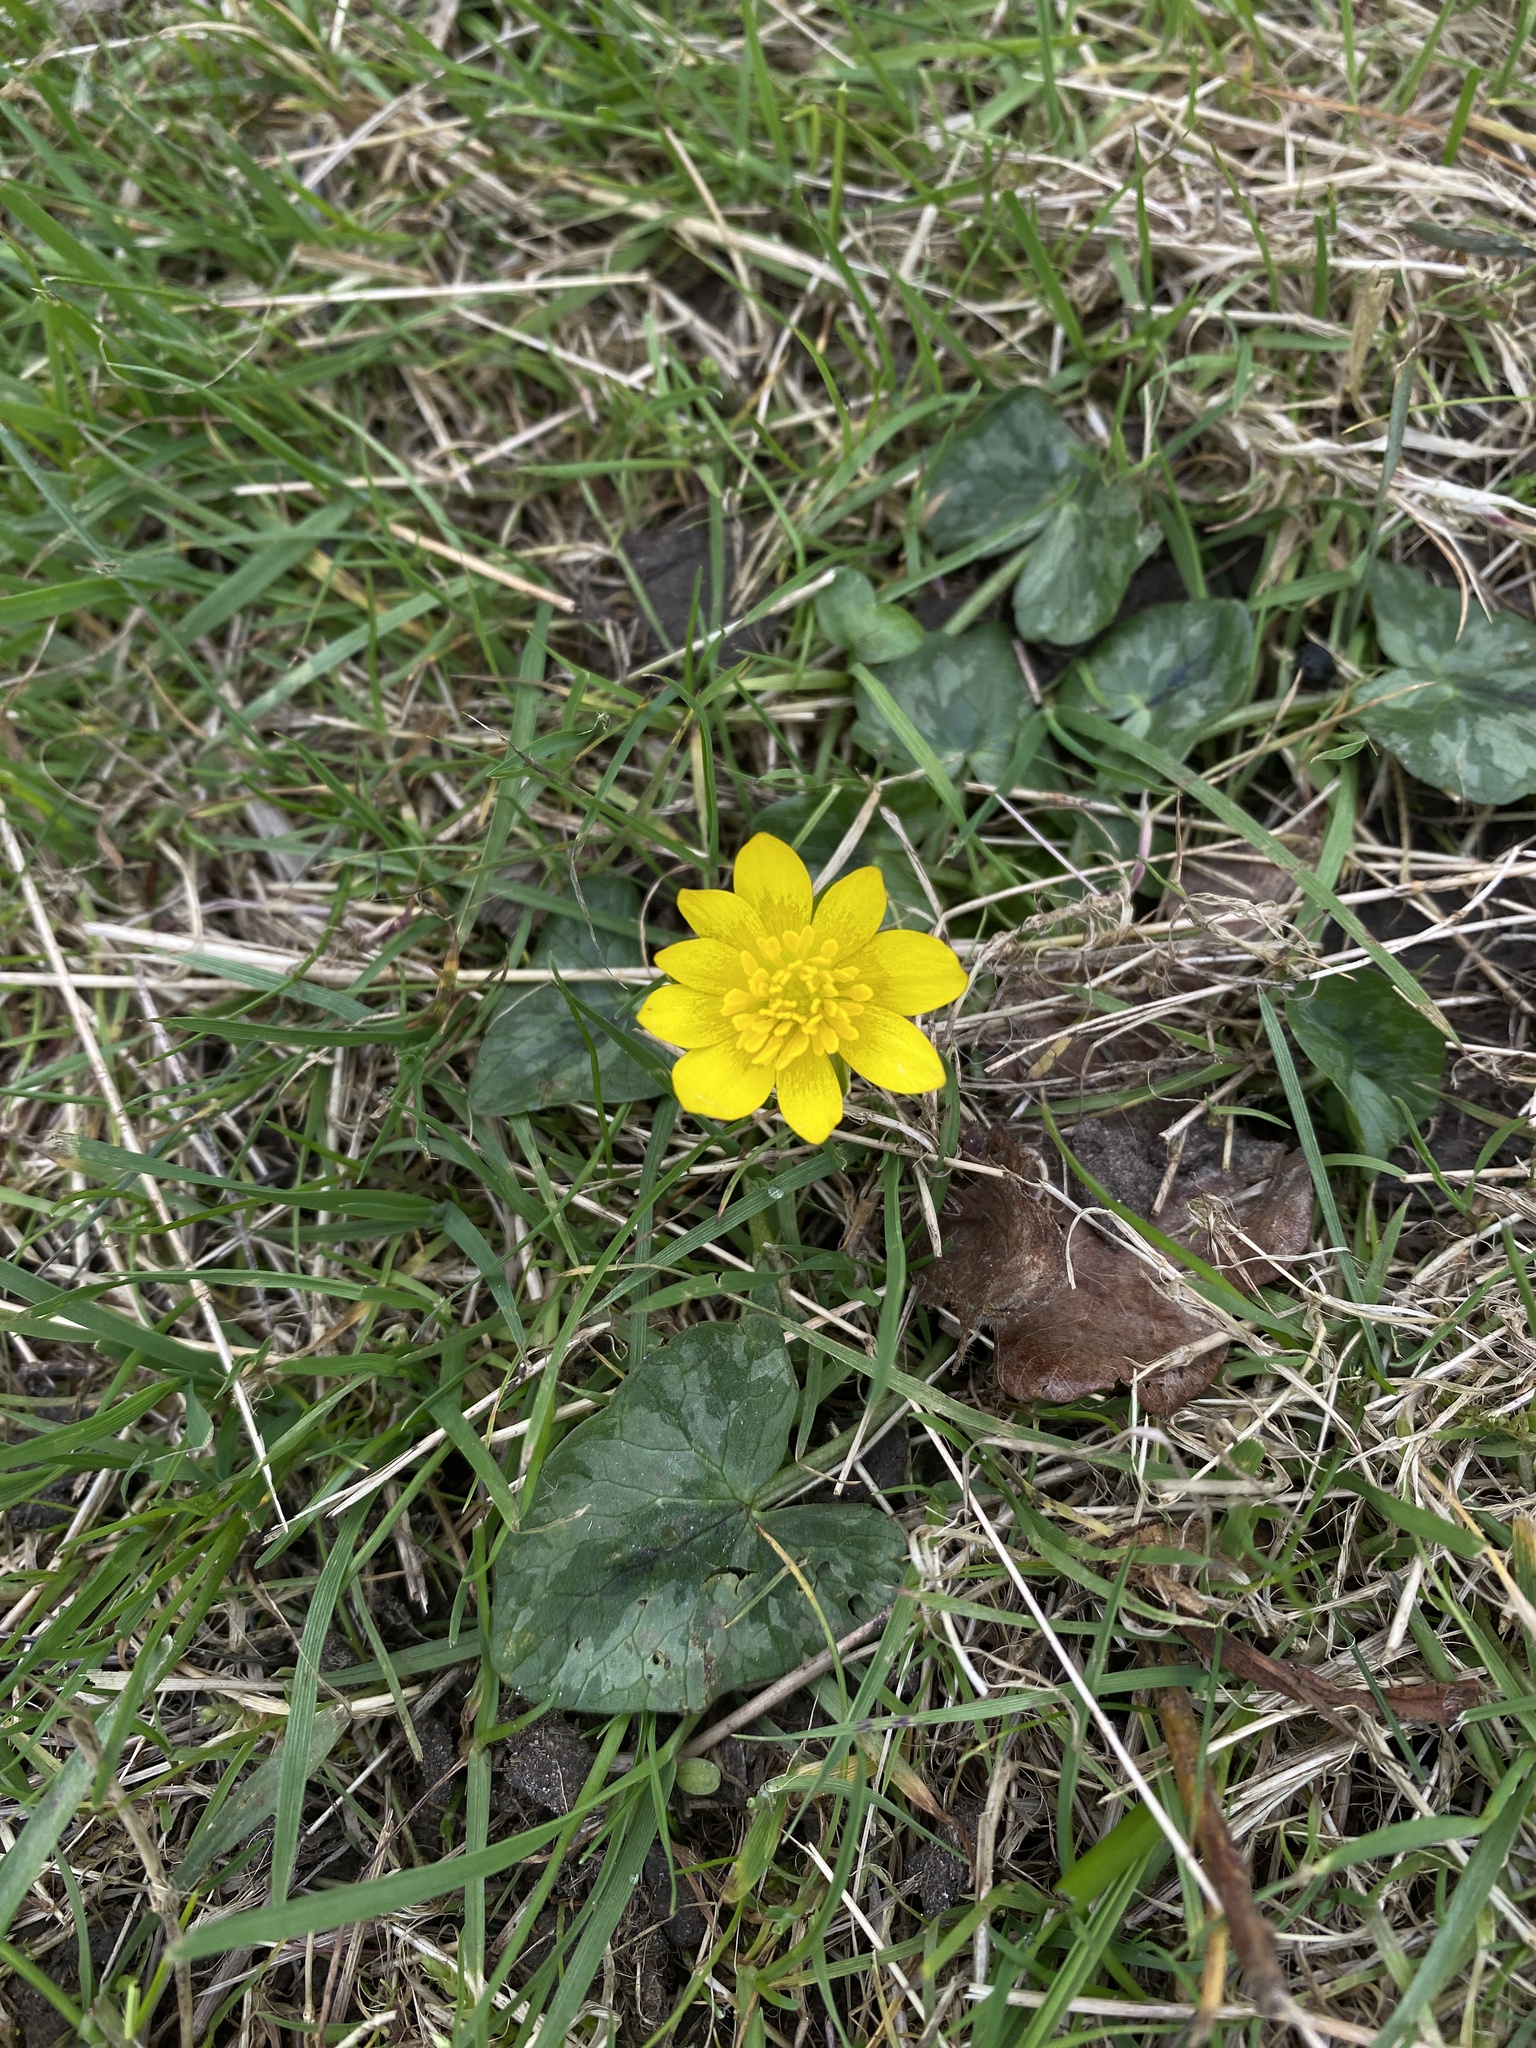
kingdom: Plantae
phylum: Tracheophyta
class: Magnoliopsida
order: Ranunculales
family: Ranunculaceae
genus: Ficaria
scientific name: Ficaria verna
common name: Lesser celandine
